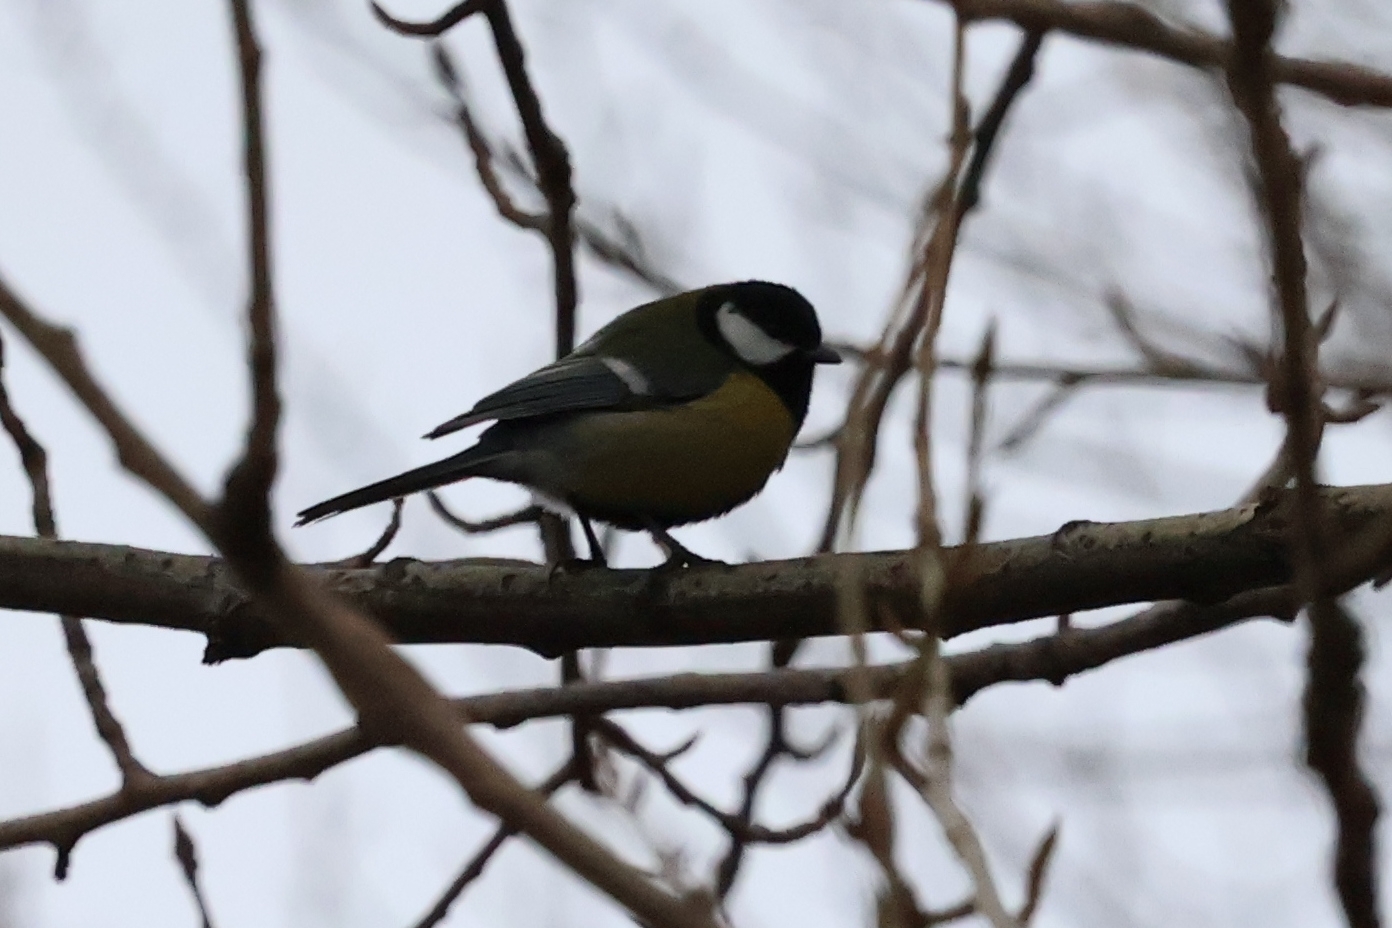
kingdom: Animalia
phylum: Chordata
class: Aves
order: Passeriformes
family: Paridae
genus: Parus
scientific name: Parus major
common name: Great tit
